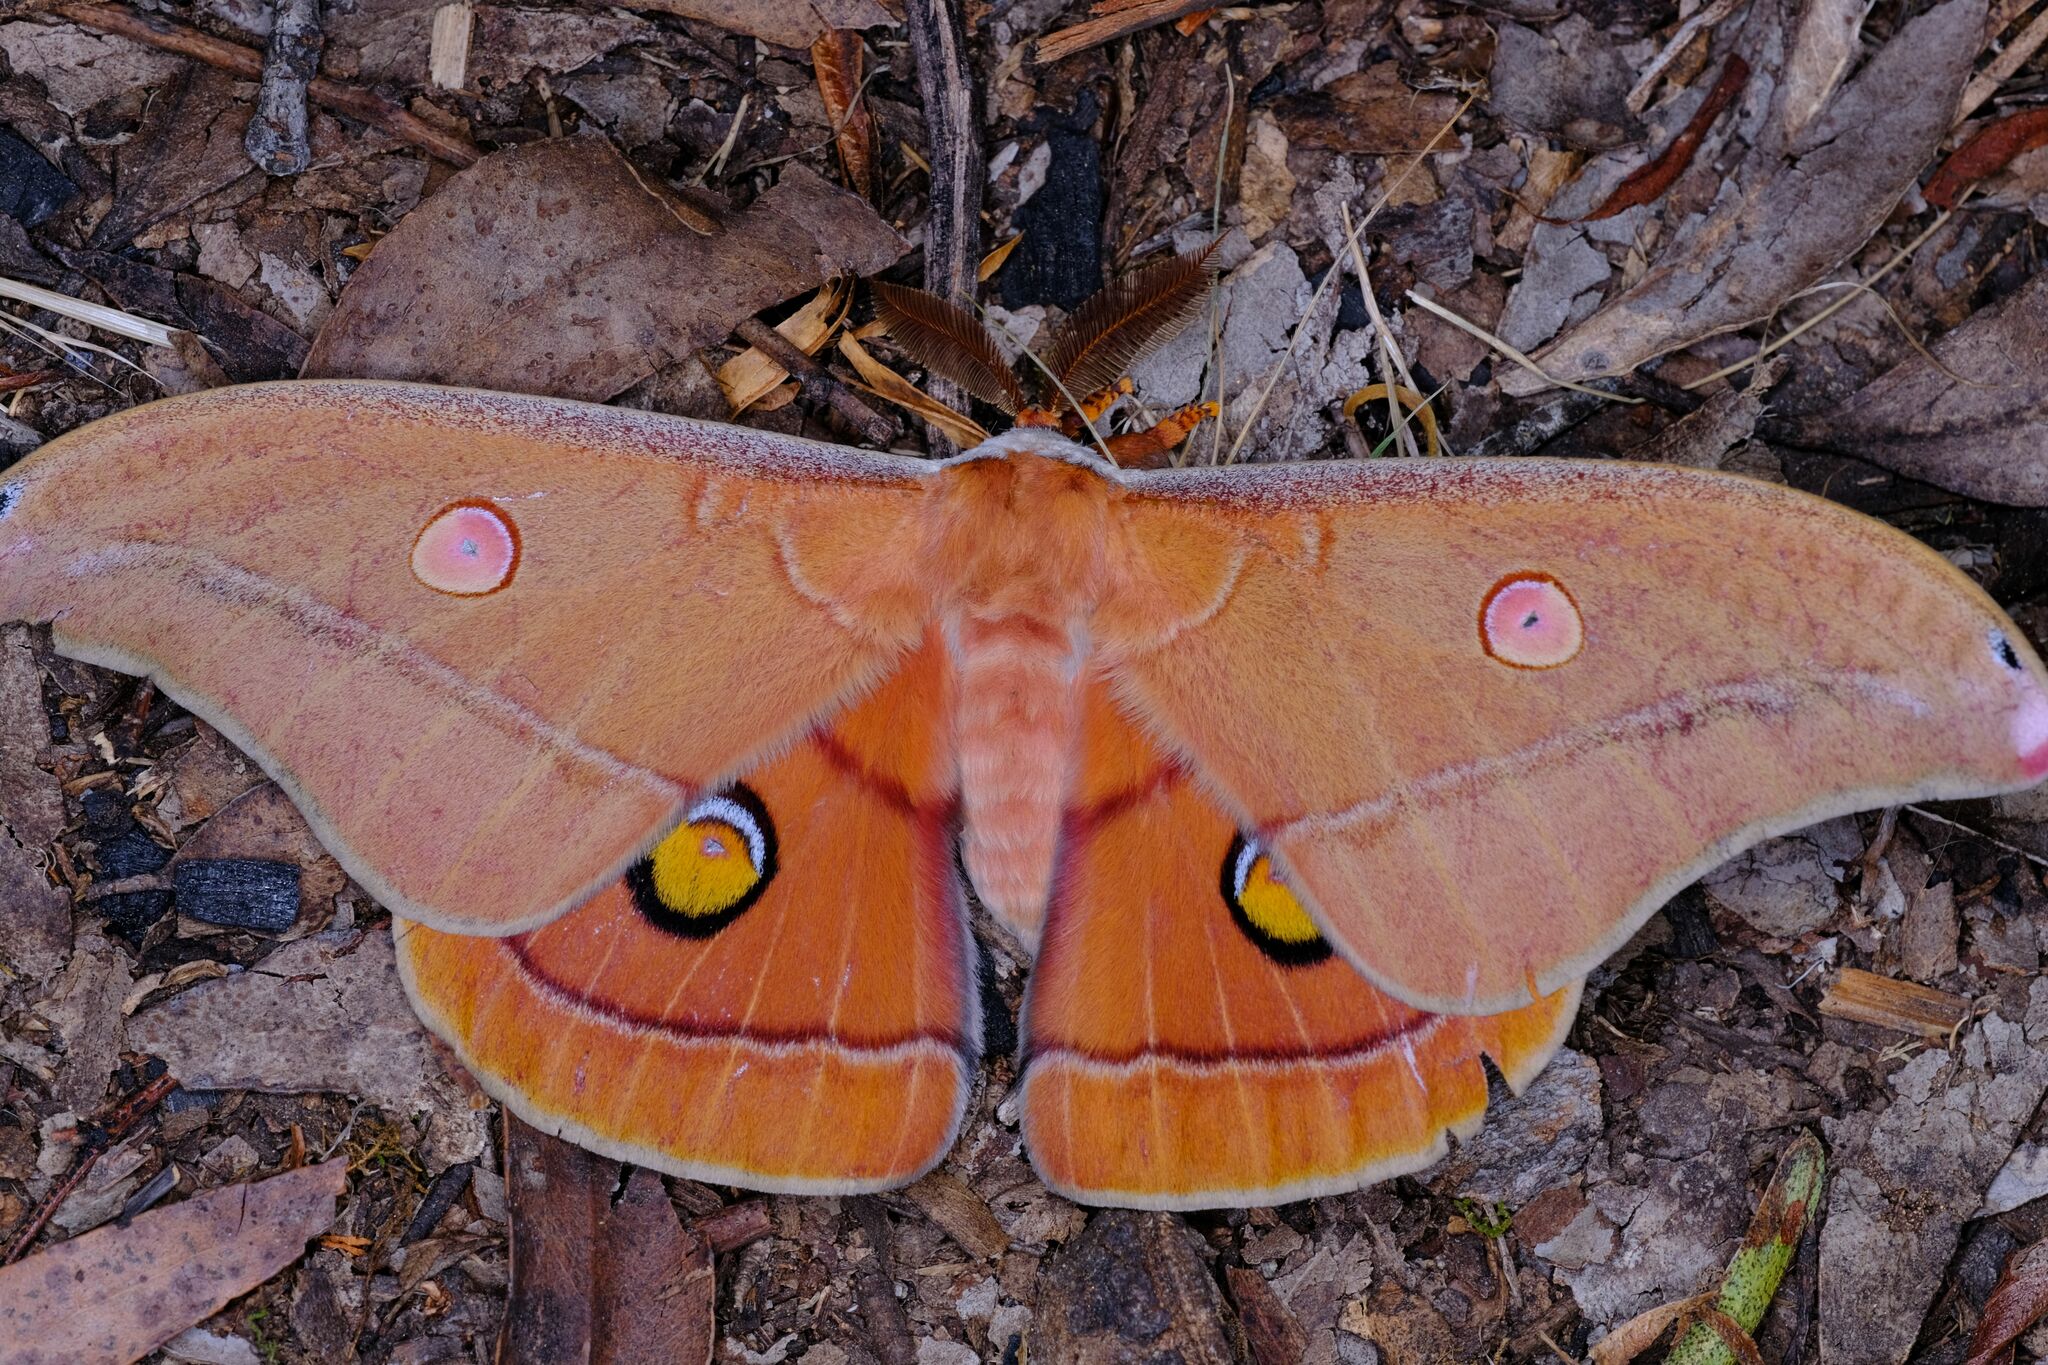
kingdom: Animalia
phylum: Arthropoda
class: Insecta
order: Lepidoptera
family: Saturniidae
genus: Opodiphthera
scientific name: Opodiphthera
